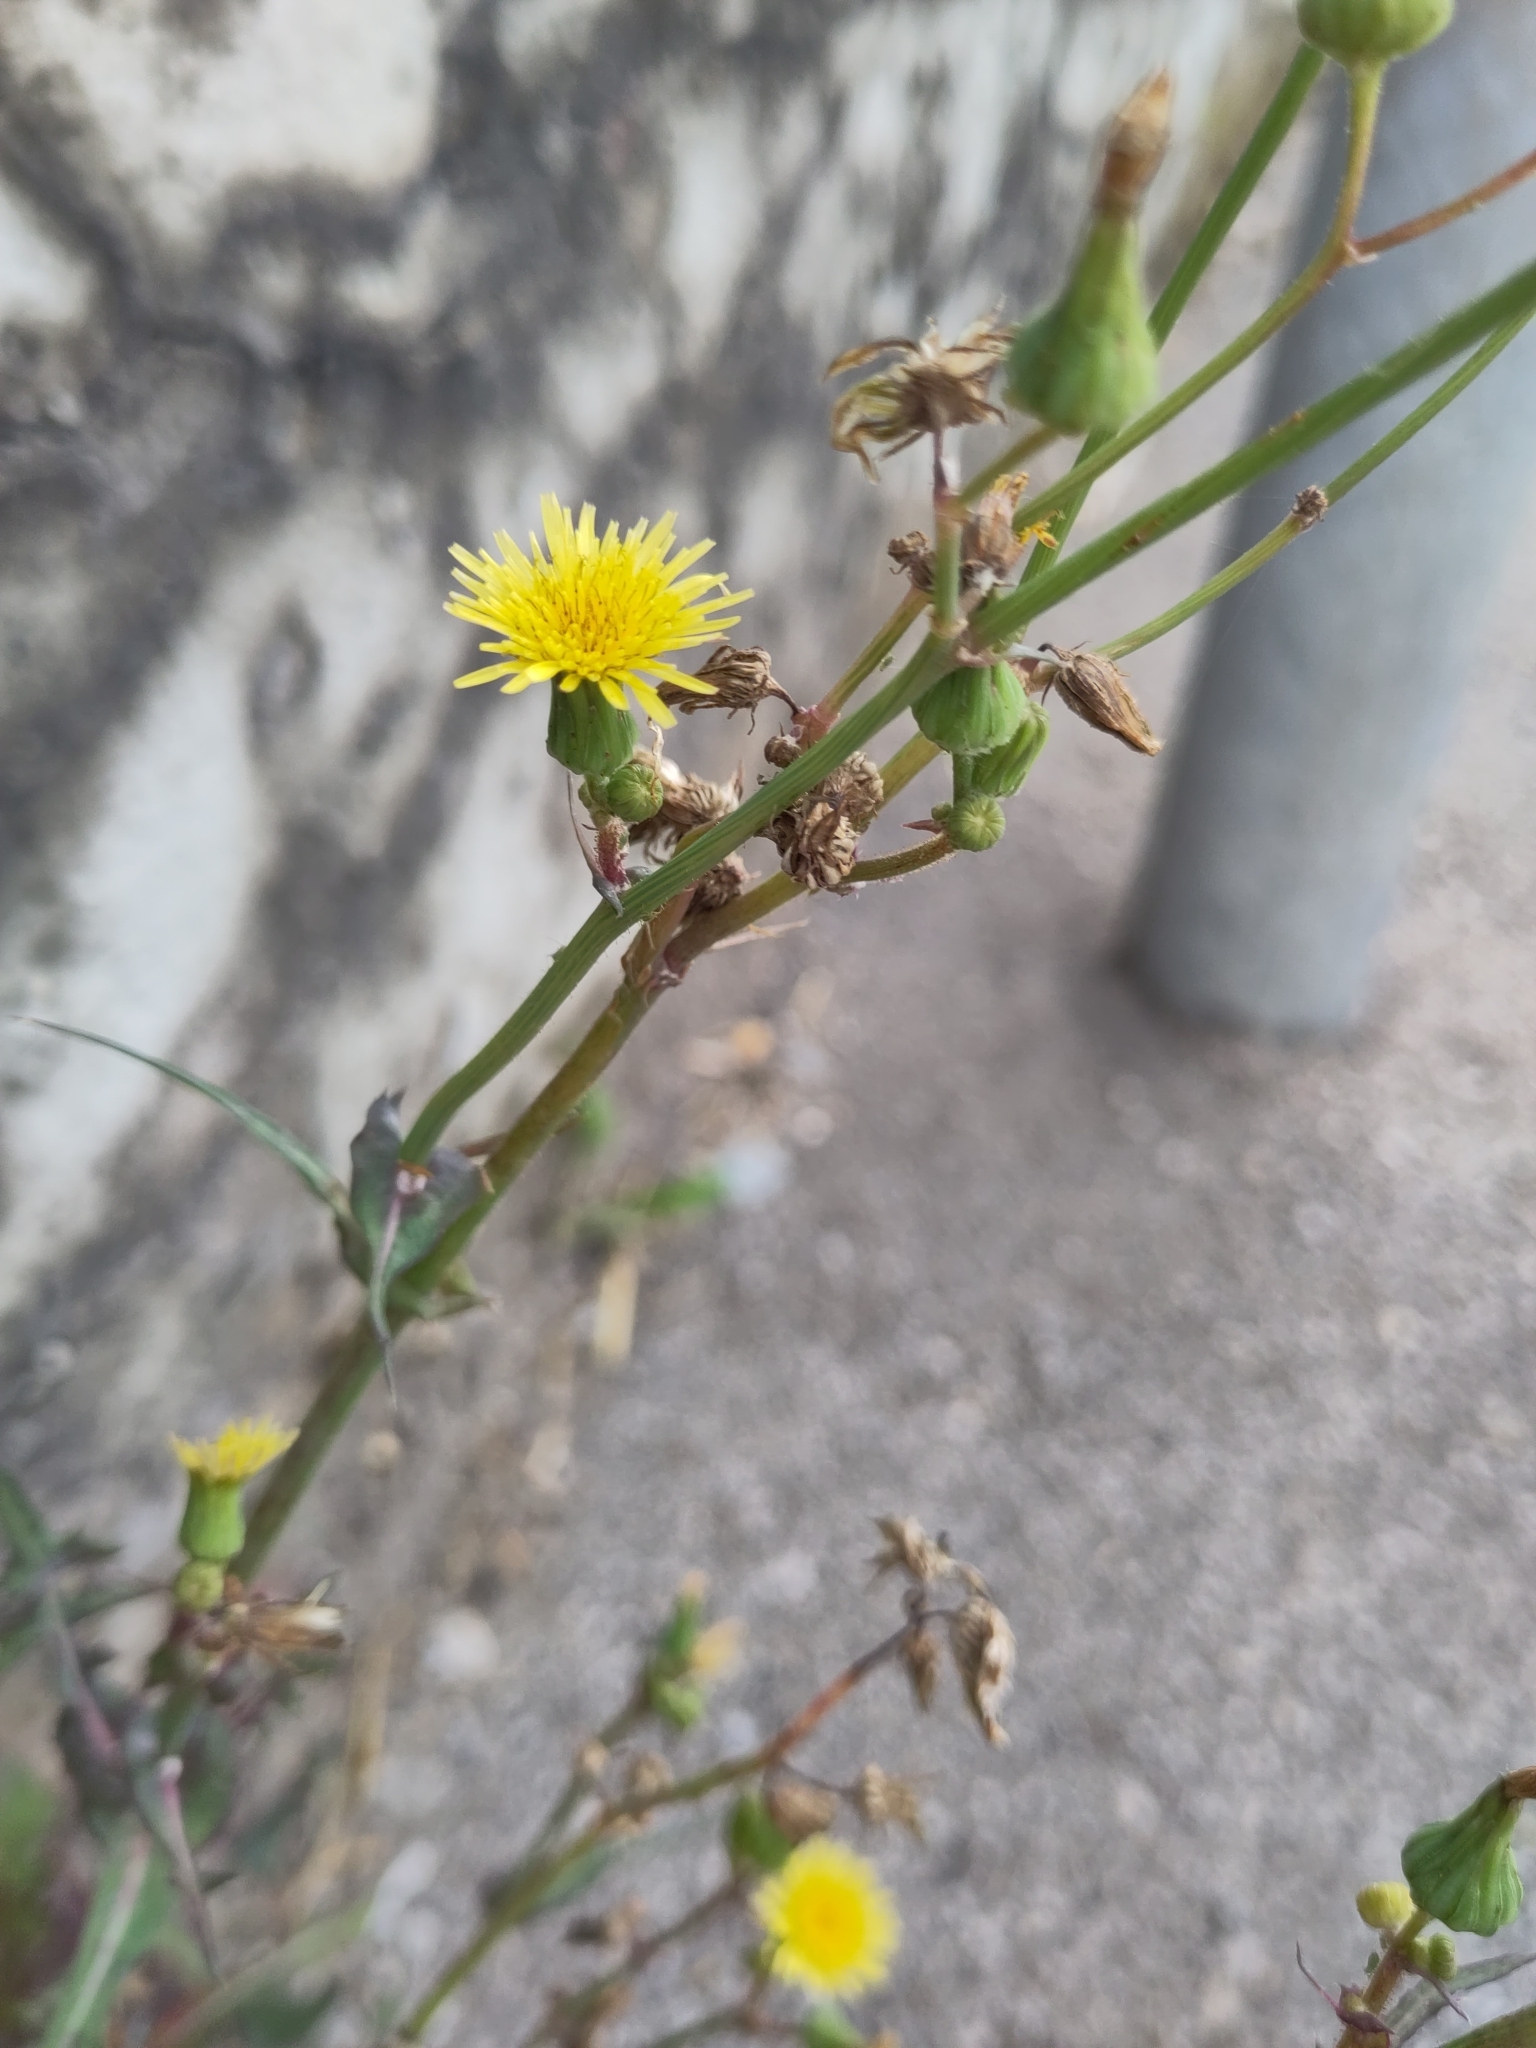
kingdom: Plantae
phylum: Tracheophyta
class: Magnoliopsida
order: Asterales
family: Asteraceae
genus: Sonchus
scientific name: Sonchus oleraceus
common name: Common sowthistle
